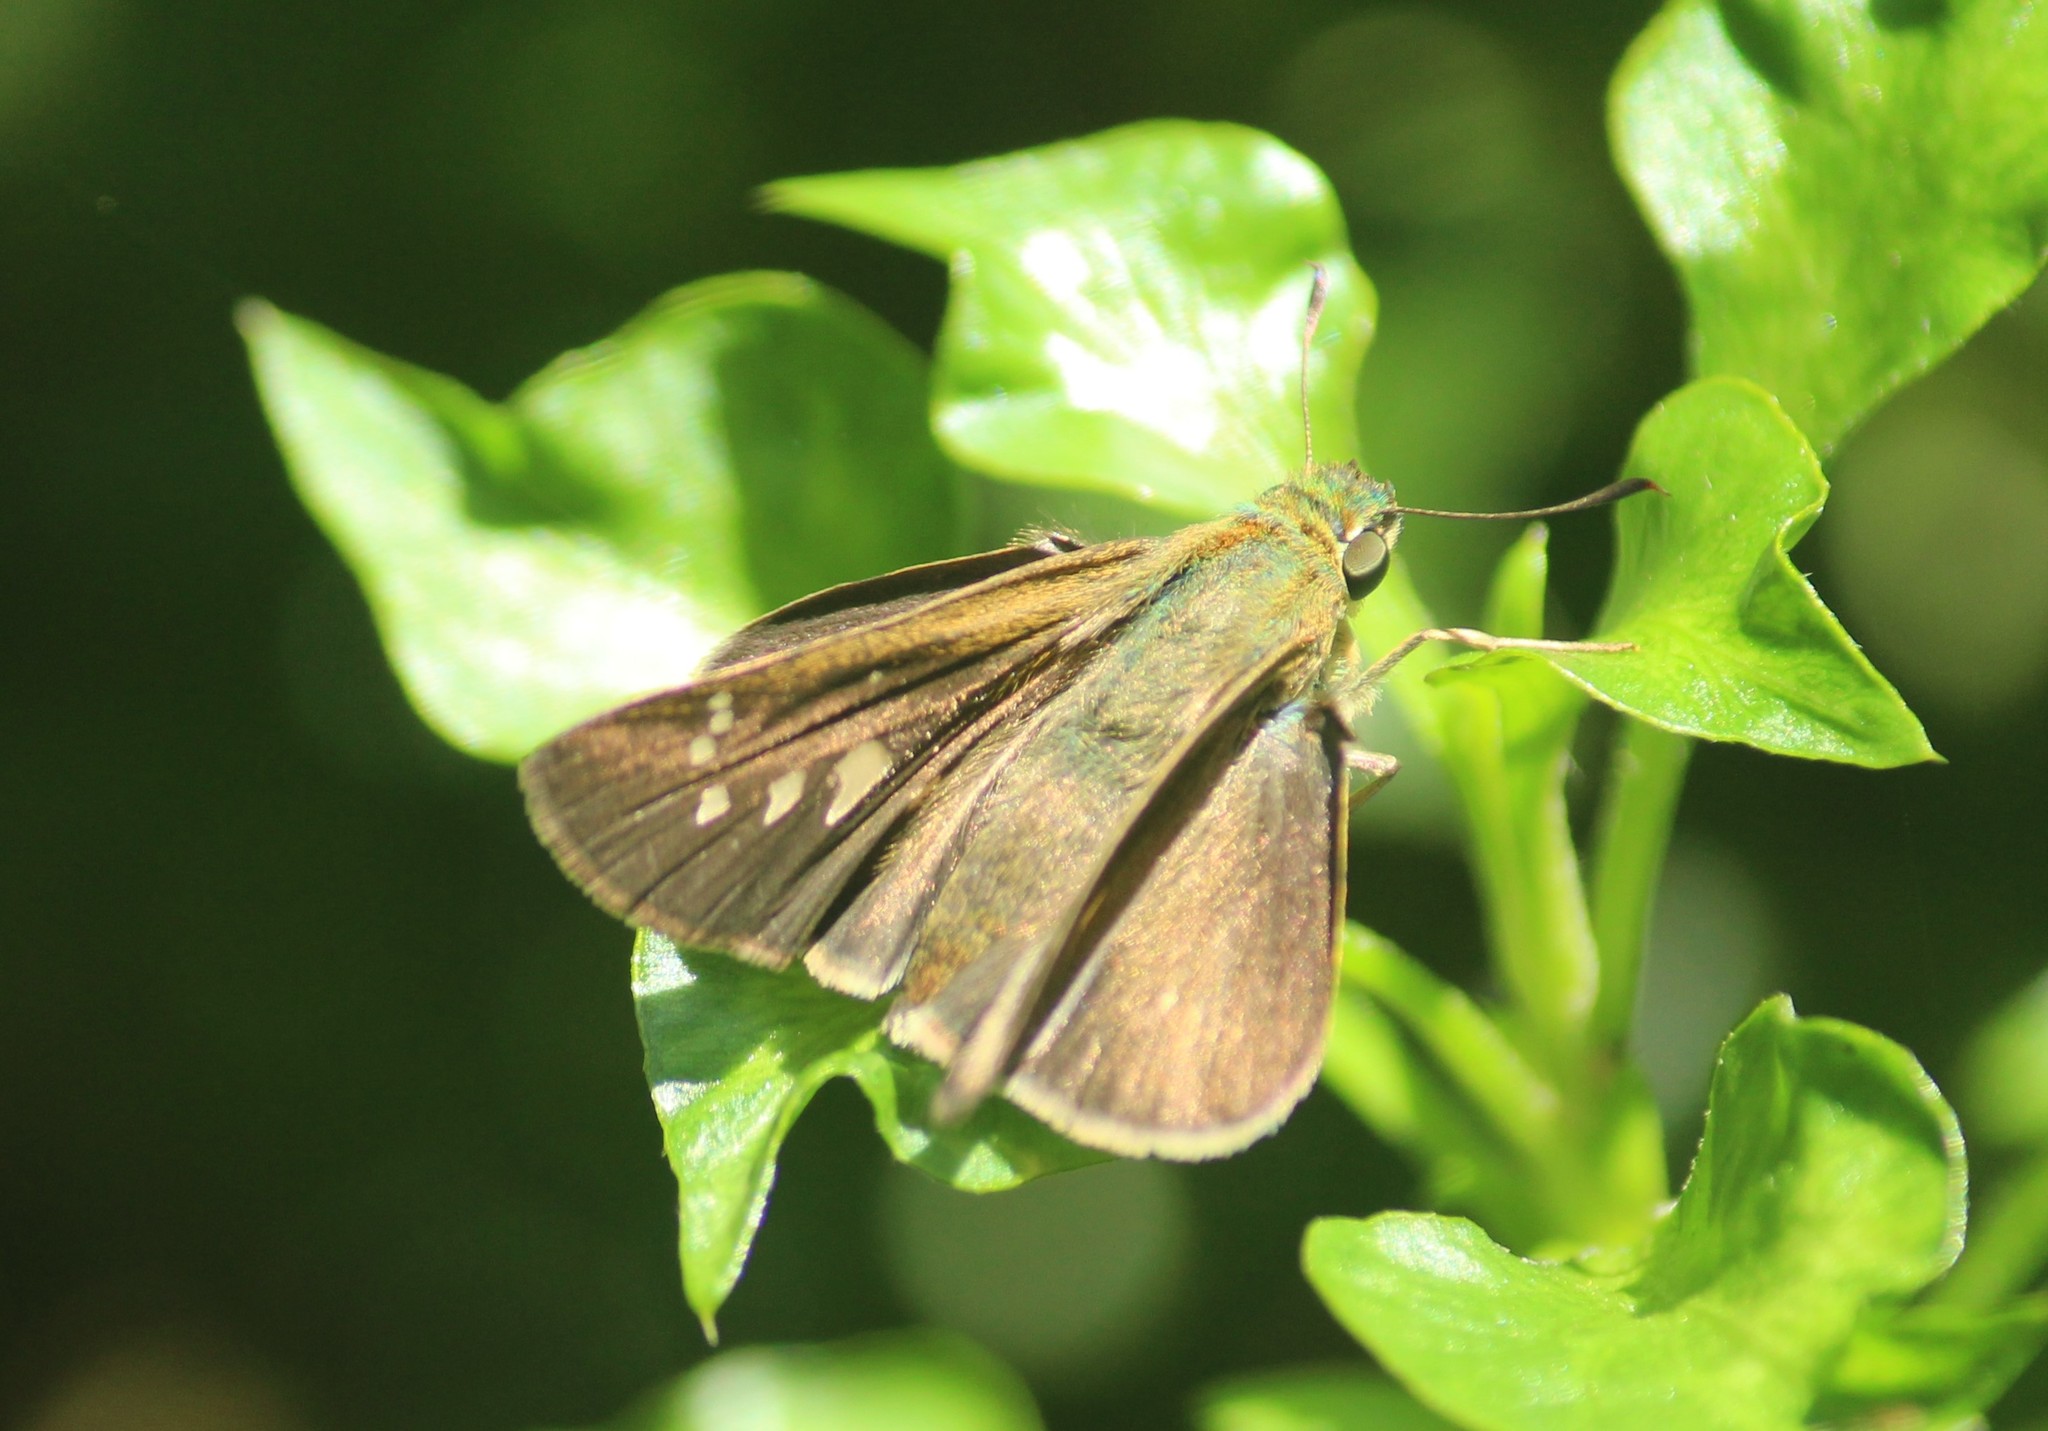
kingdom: Animalia
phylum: Arthropoda
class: Insecta
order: Lepidoptera
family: Hesperiidae
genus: Borbo
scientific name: Borbo cinnara
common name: Formosan swift
